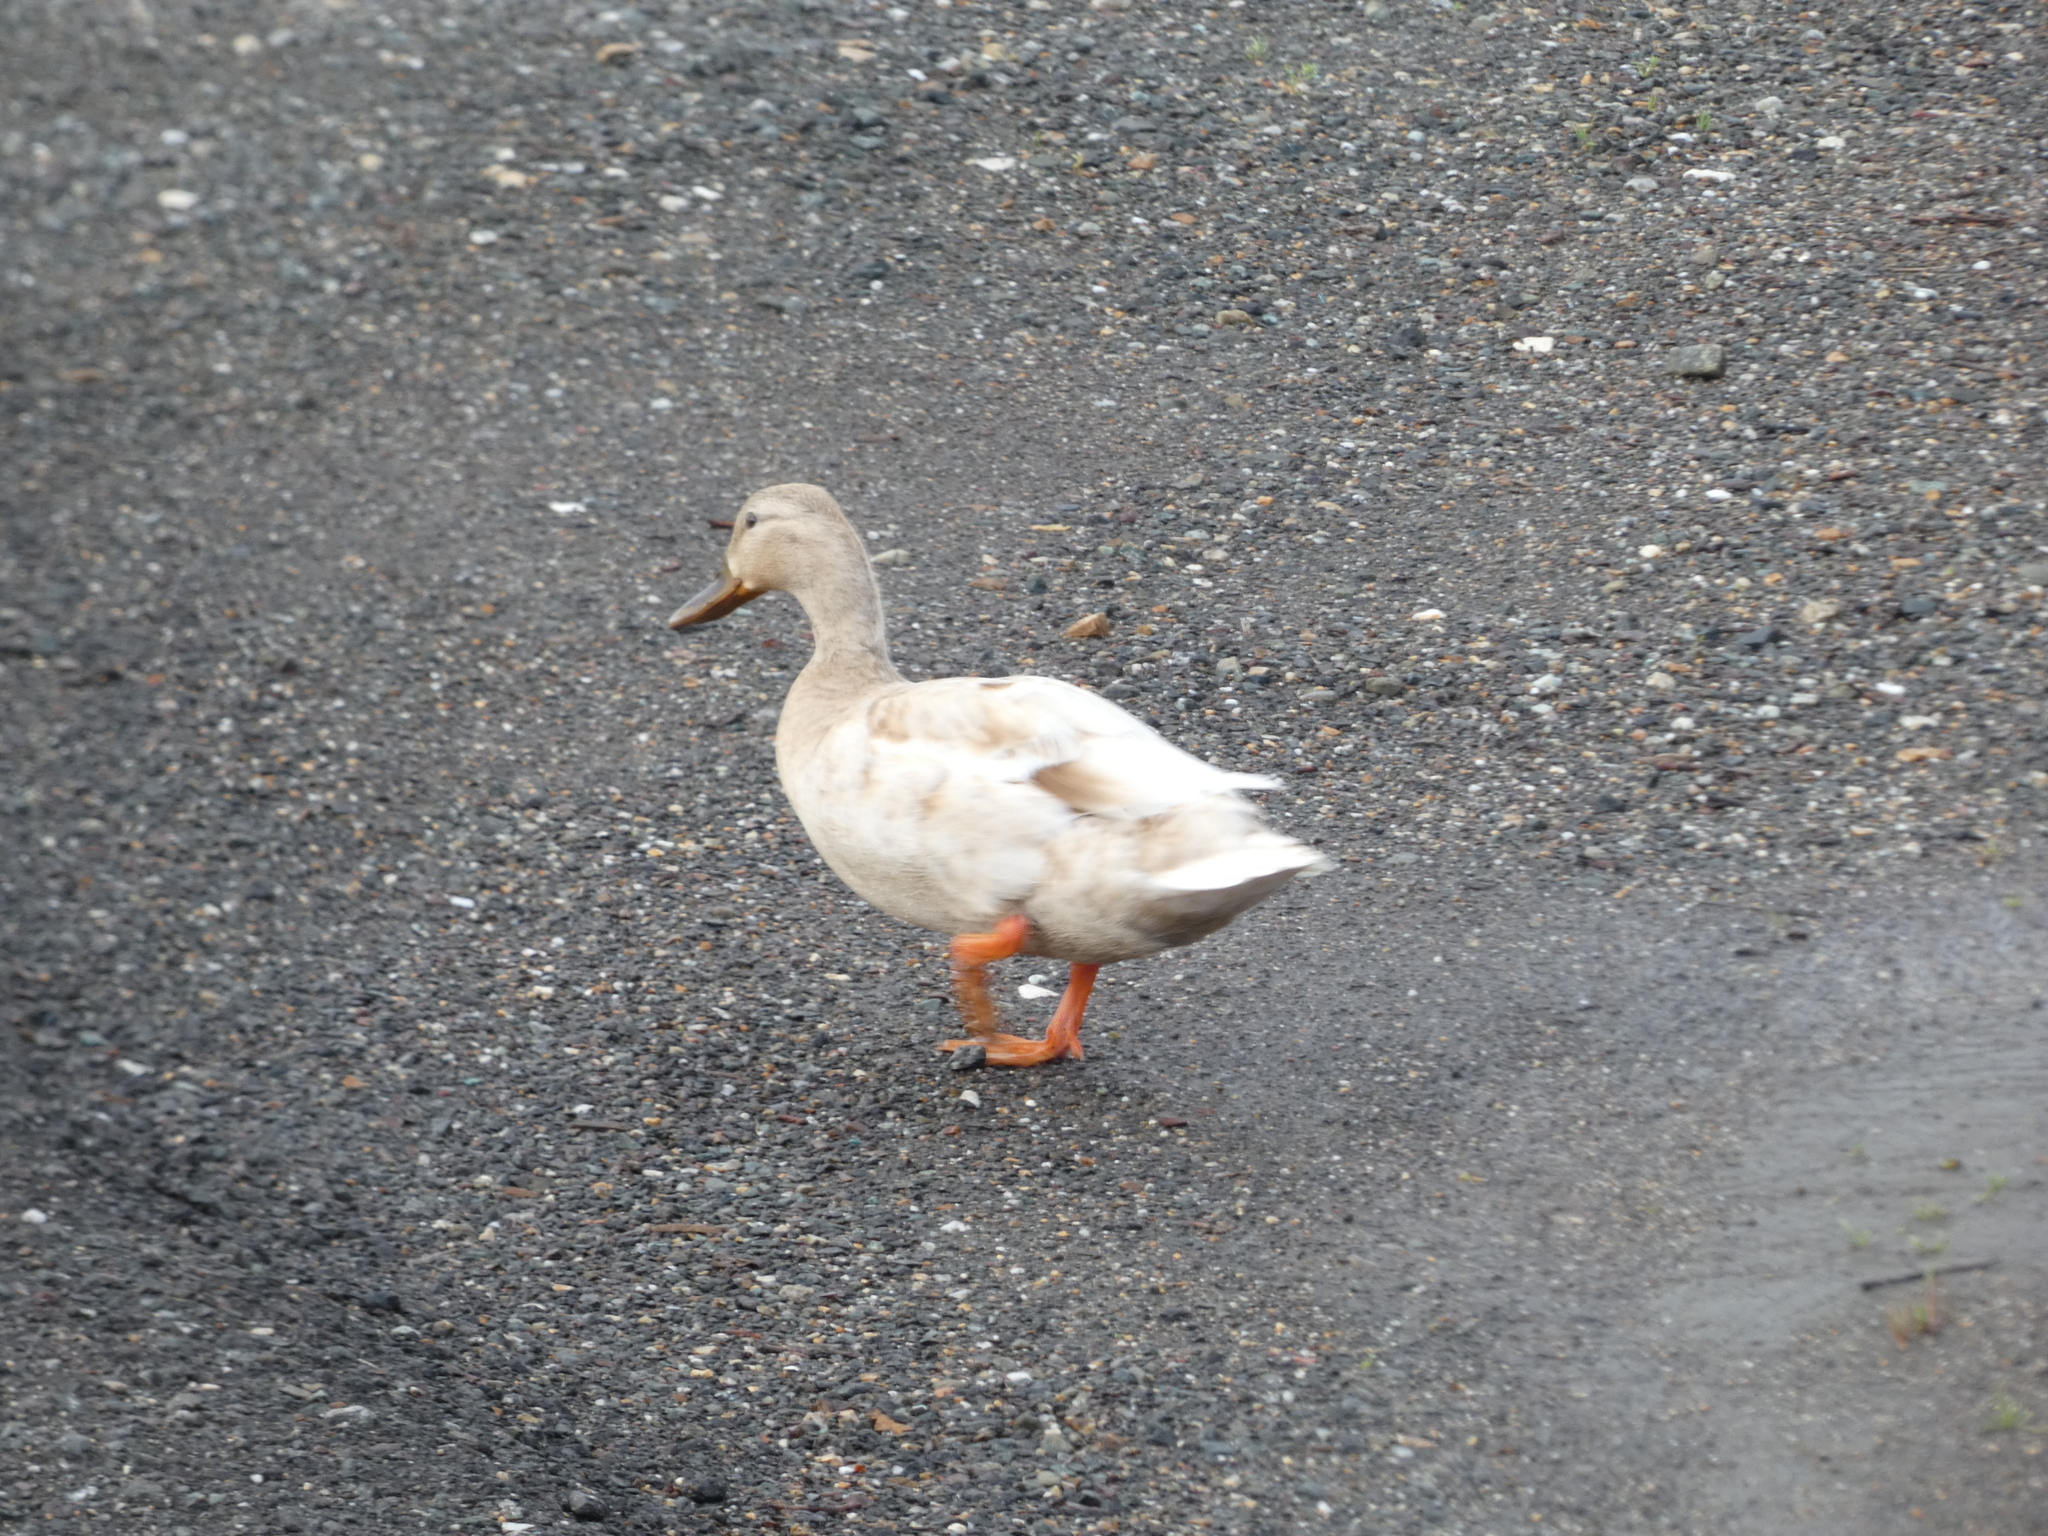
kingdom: Animalia
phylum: Chordata
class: Aves
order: Anseriformes
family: Anatidae
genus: Anas
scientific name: Anas platyrhynchos
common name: Mallard
